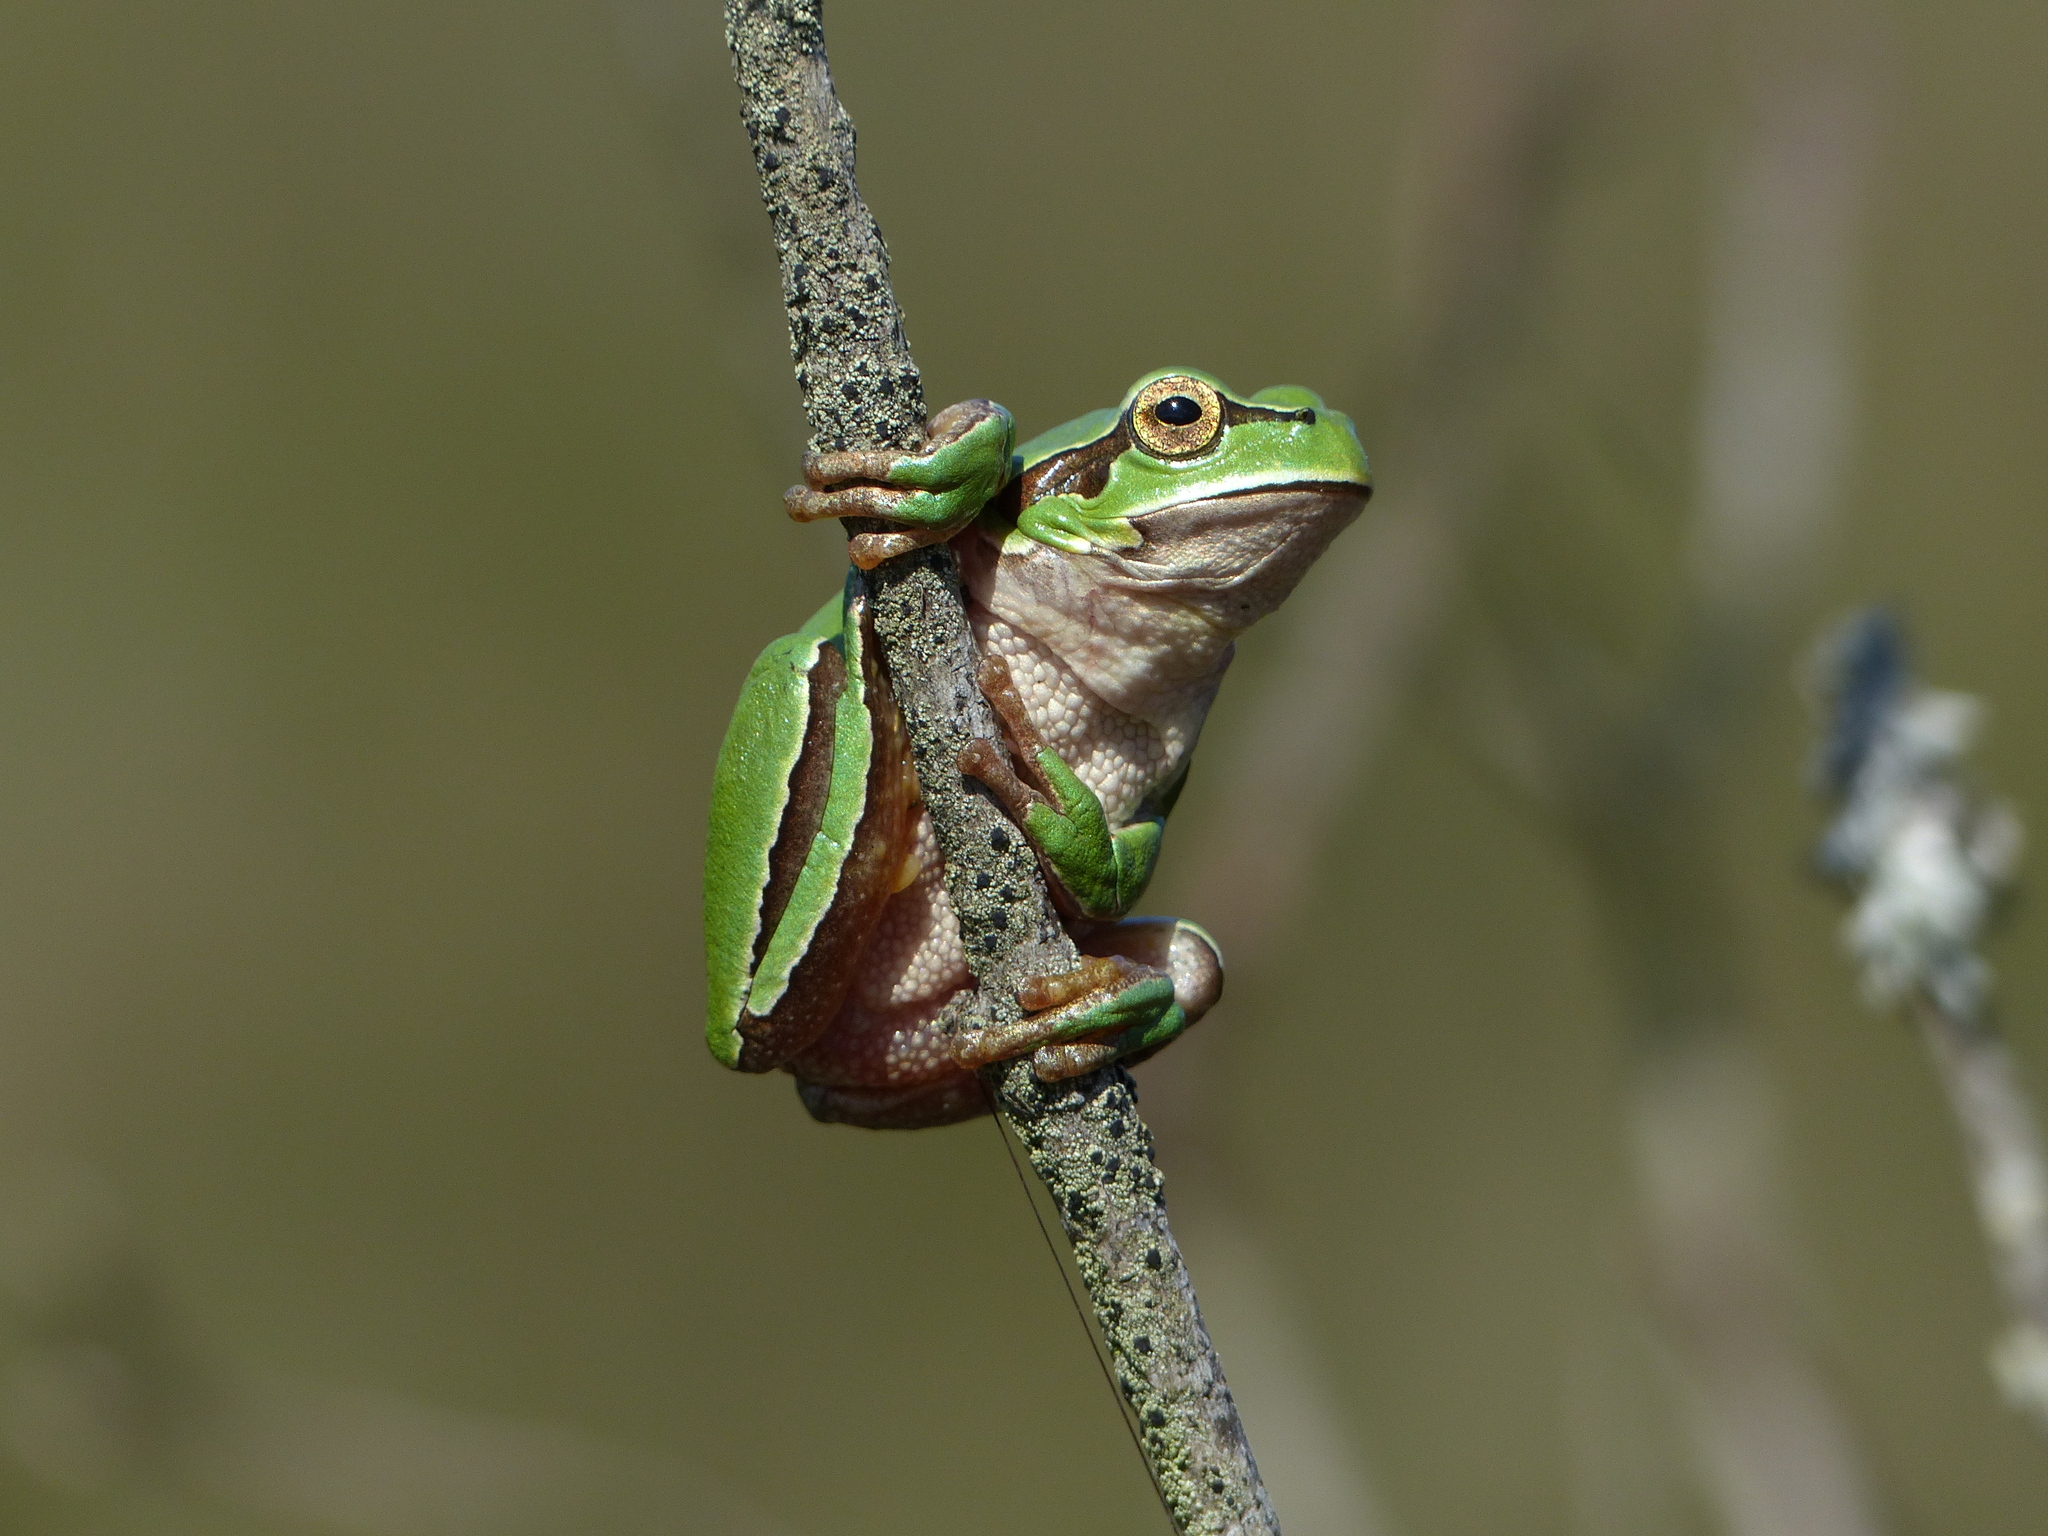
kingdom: Animalia
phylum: Chordata
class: Amphibia
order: Anura
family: Hylidae
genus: Hyla
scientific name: Hyla molleri
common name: Iberian tree frog
